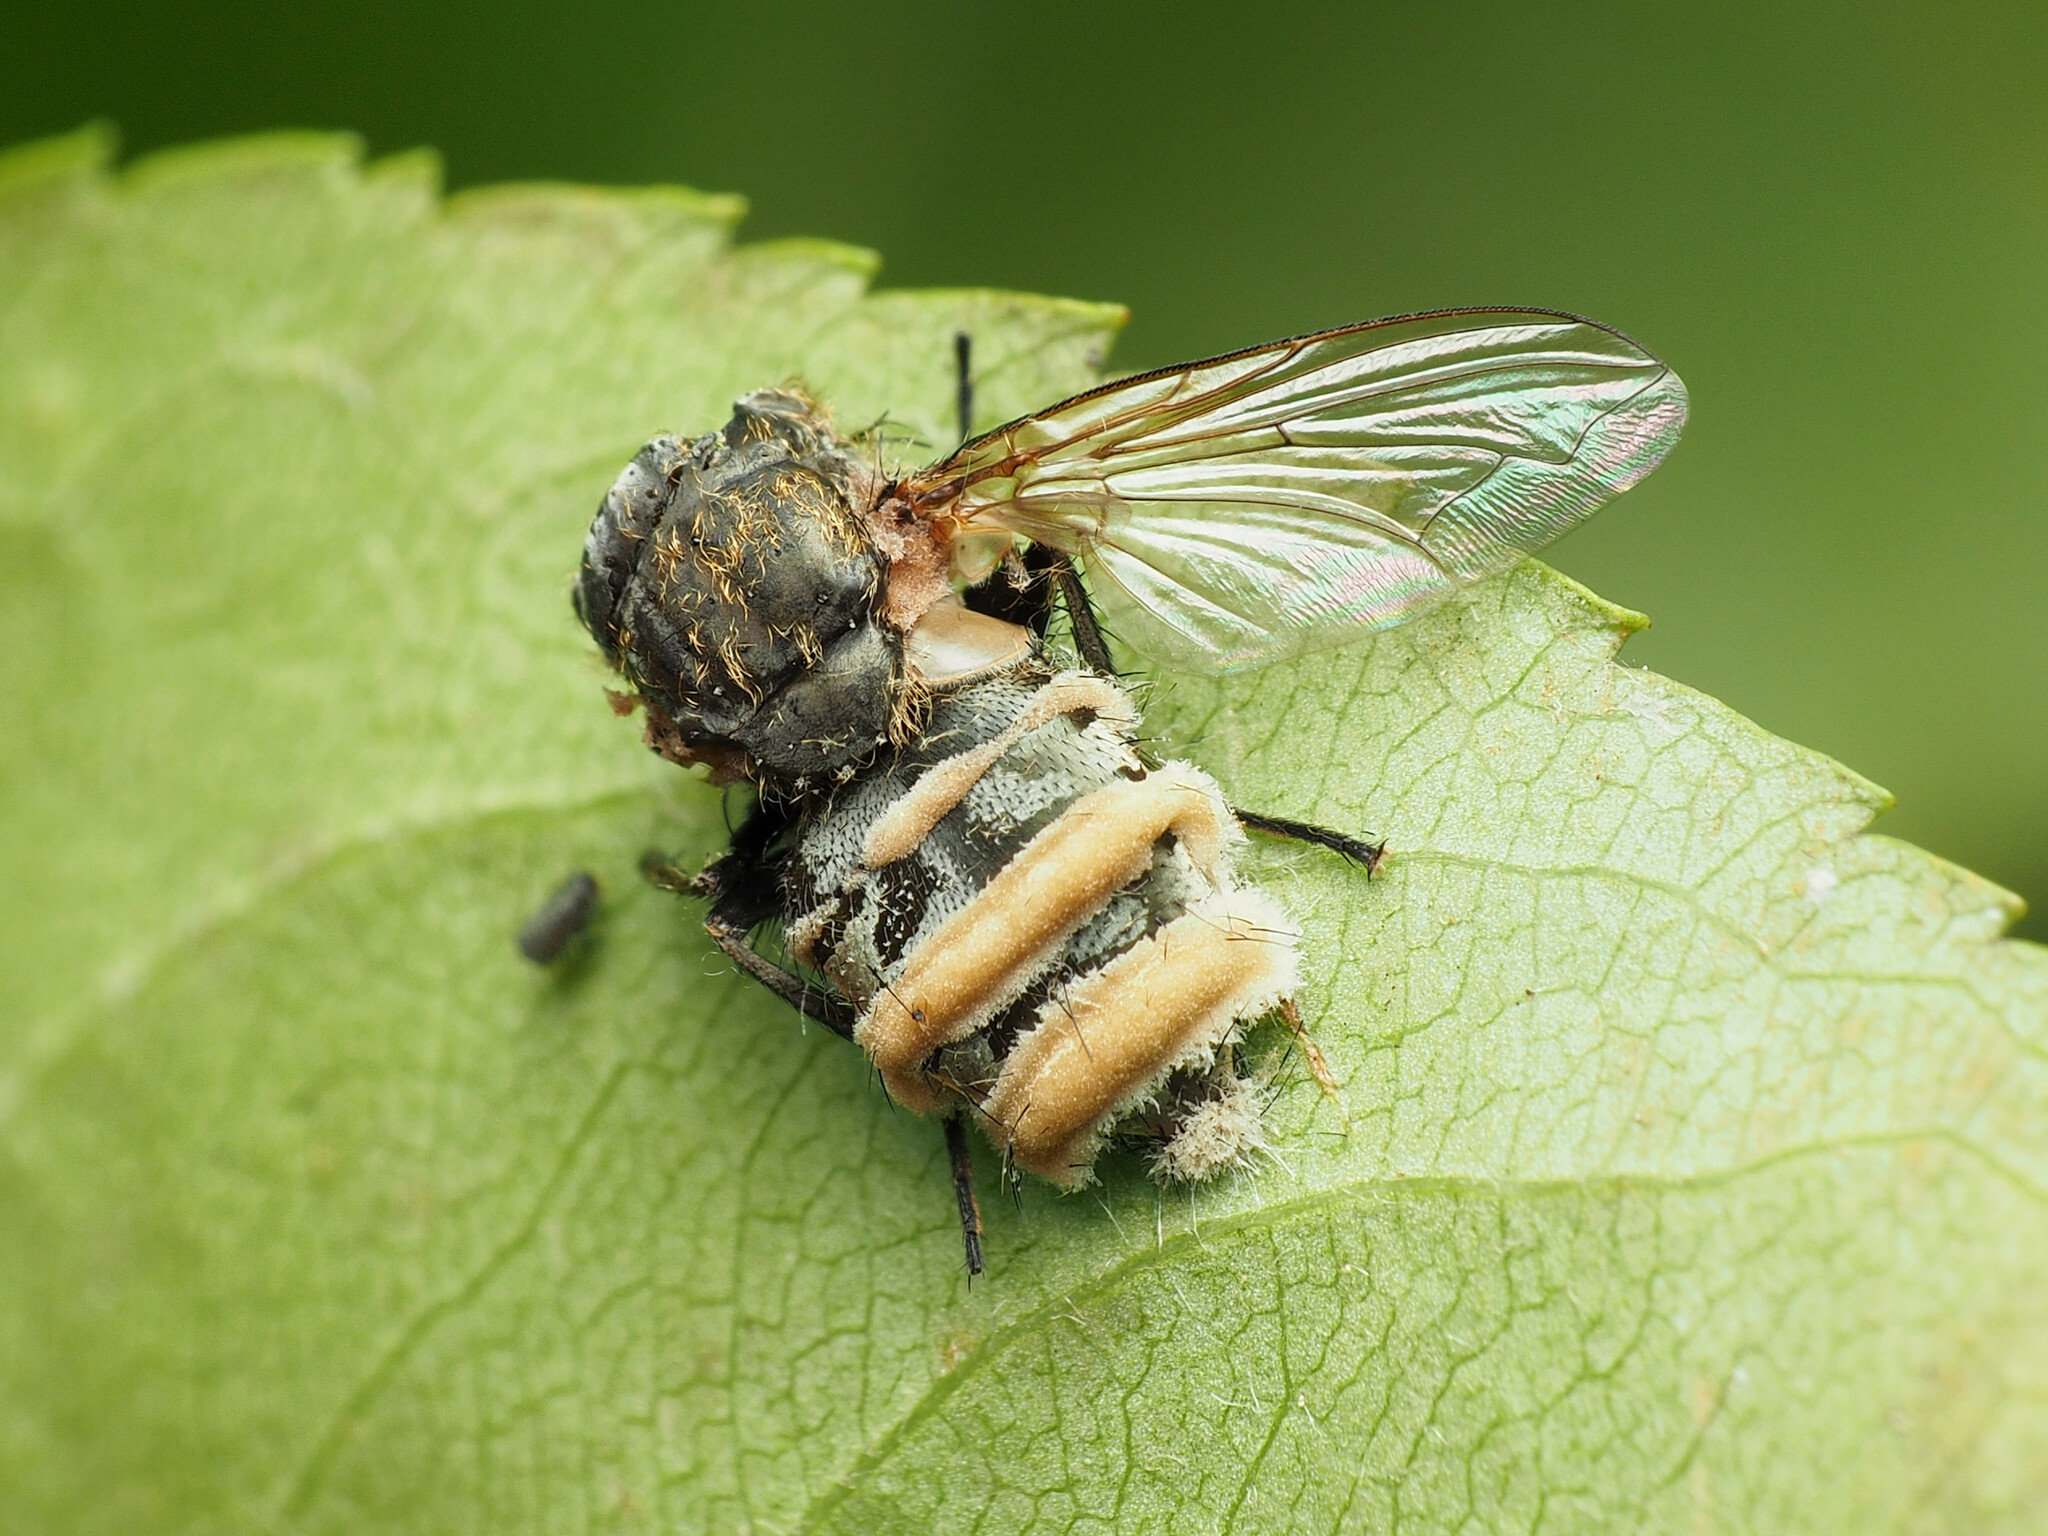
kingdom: Animalia
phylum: Arthropoda
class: Insecta
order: Diptera
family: Polleniidae
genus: Pollenia
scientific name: Pollenia
